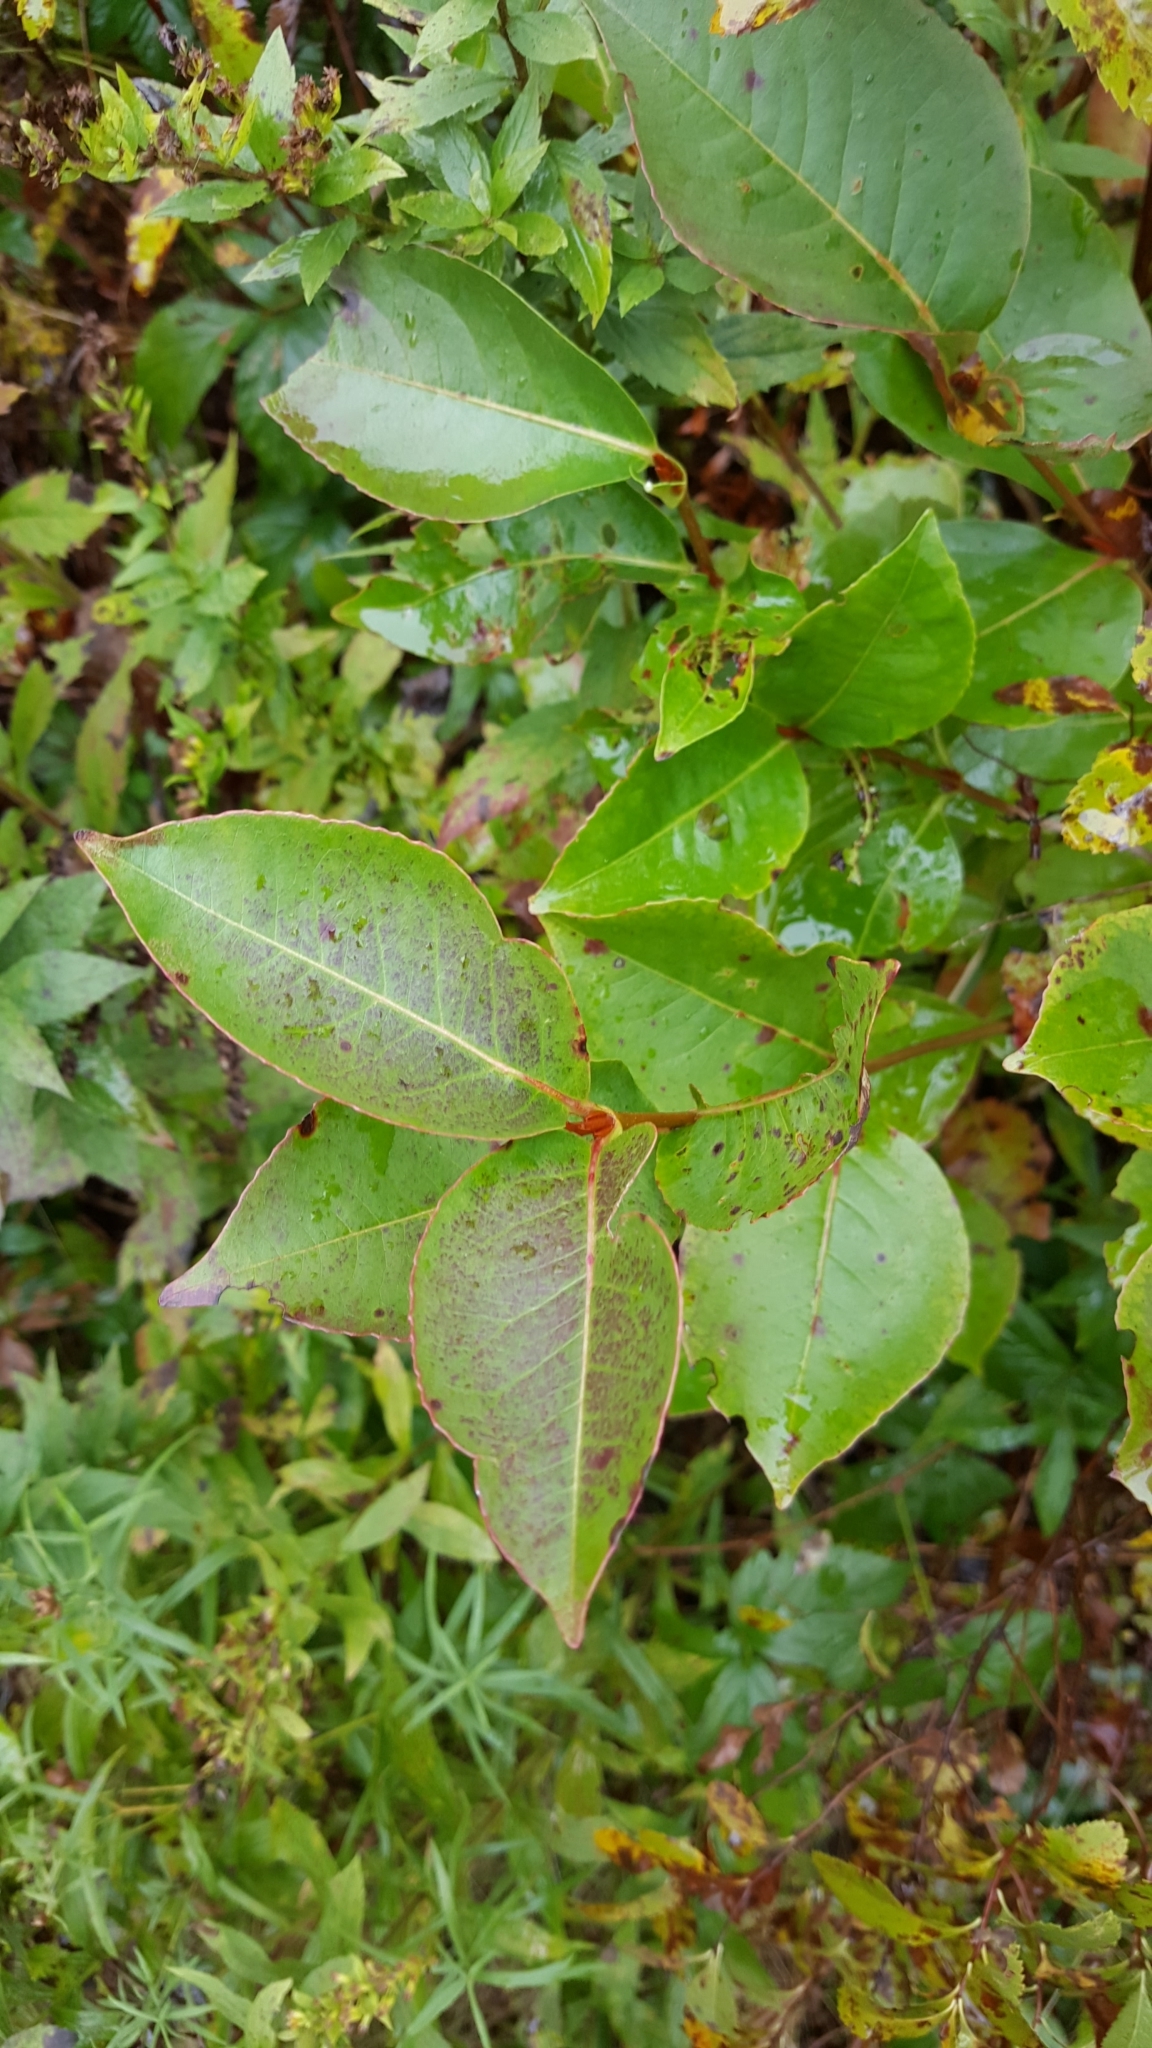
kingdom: Plantae
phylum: Tracheophyta
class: Magnoliopsida
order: Dipsacales
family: Viburnaceae
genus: Viburnum
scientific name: Viburnum cassinoides
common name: Swamp haw
